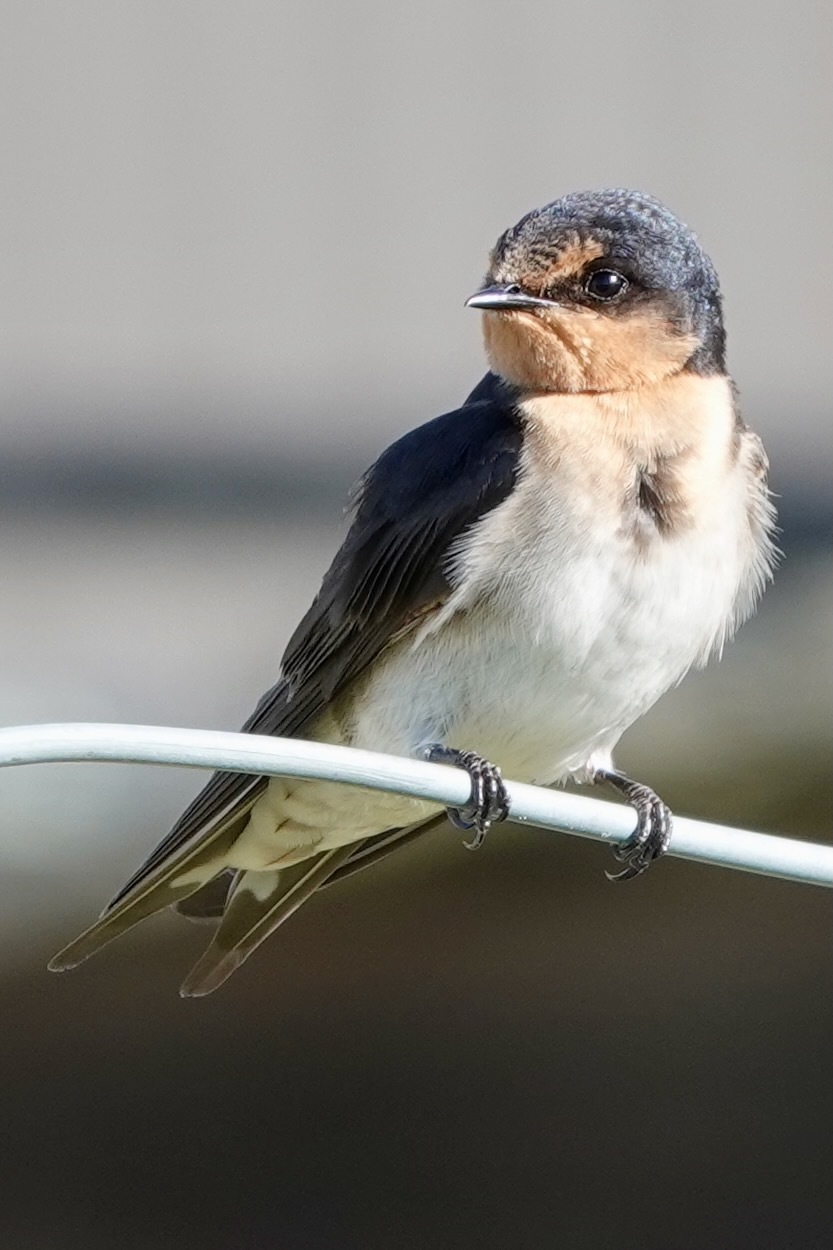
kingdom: Animalia
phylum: Chordata
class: Aves
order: Passeriformes
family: Hirundinidae
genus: Hirundo
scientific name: Hirundo neoxena
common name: Welcome swallow
